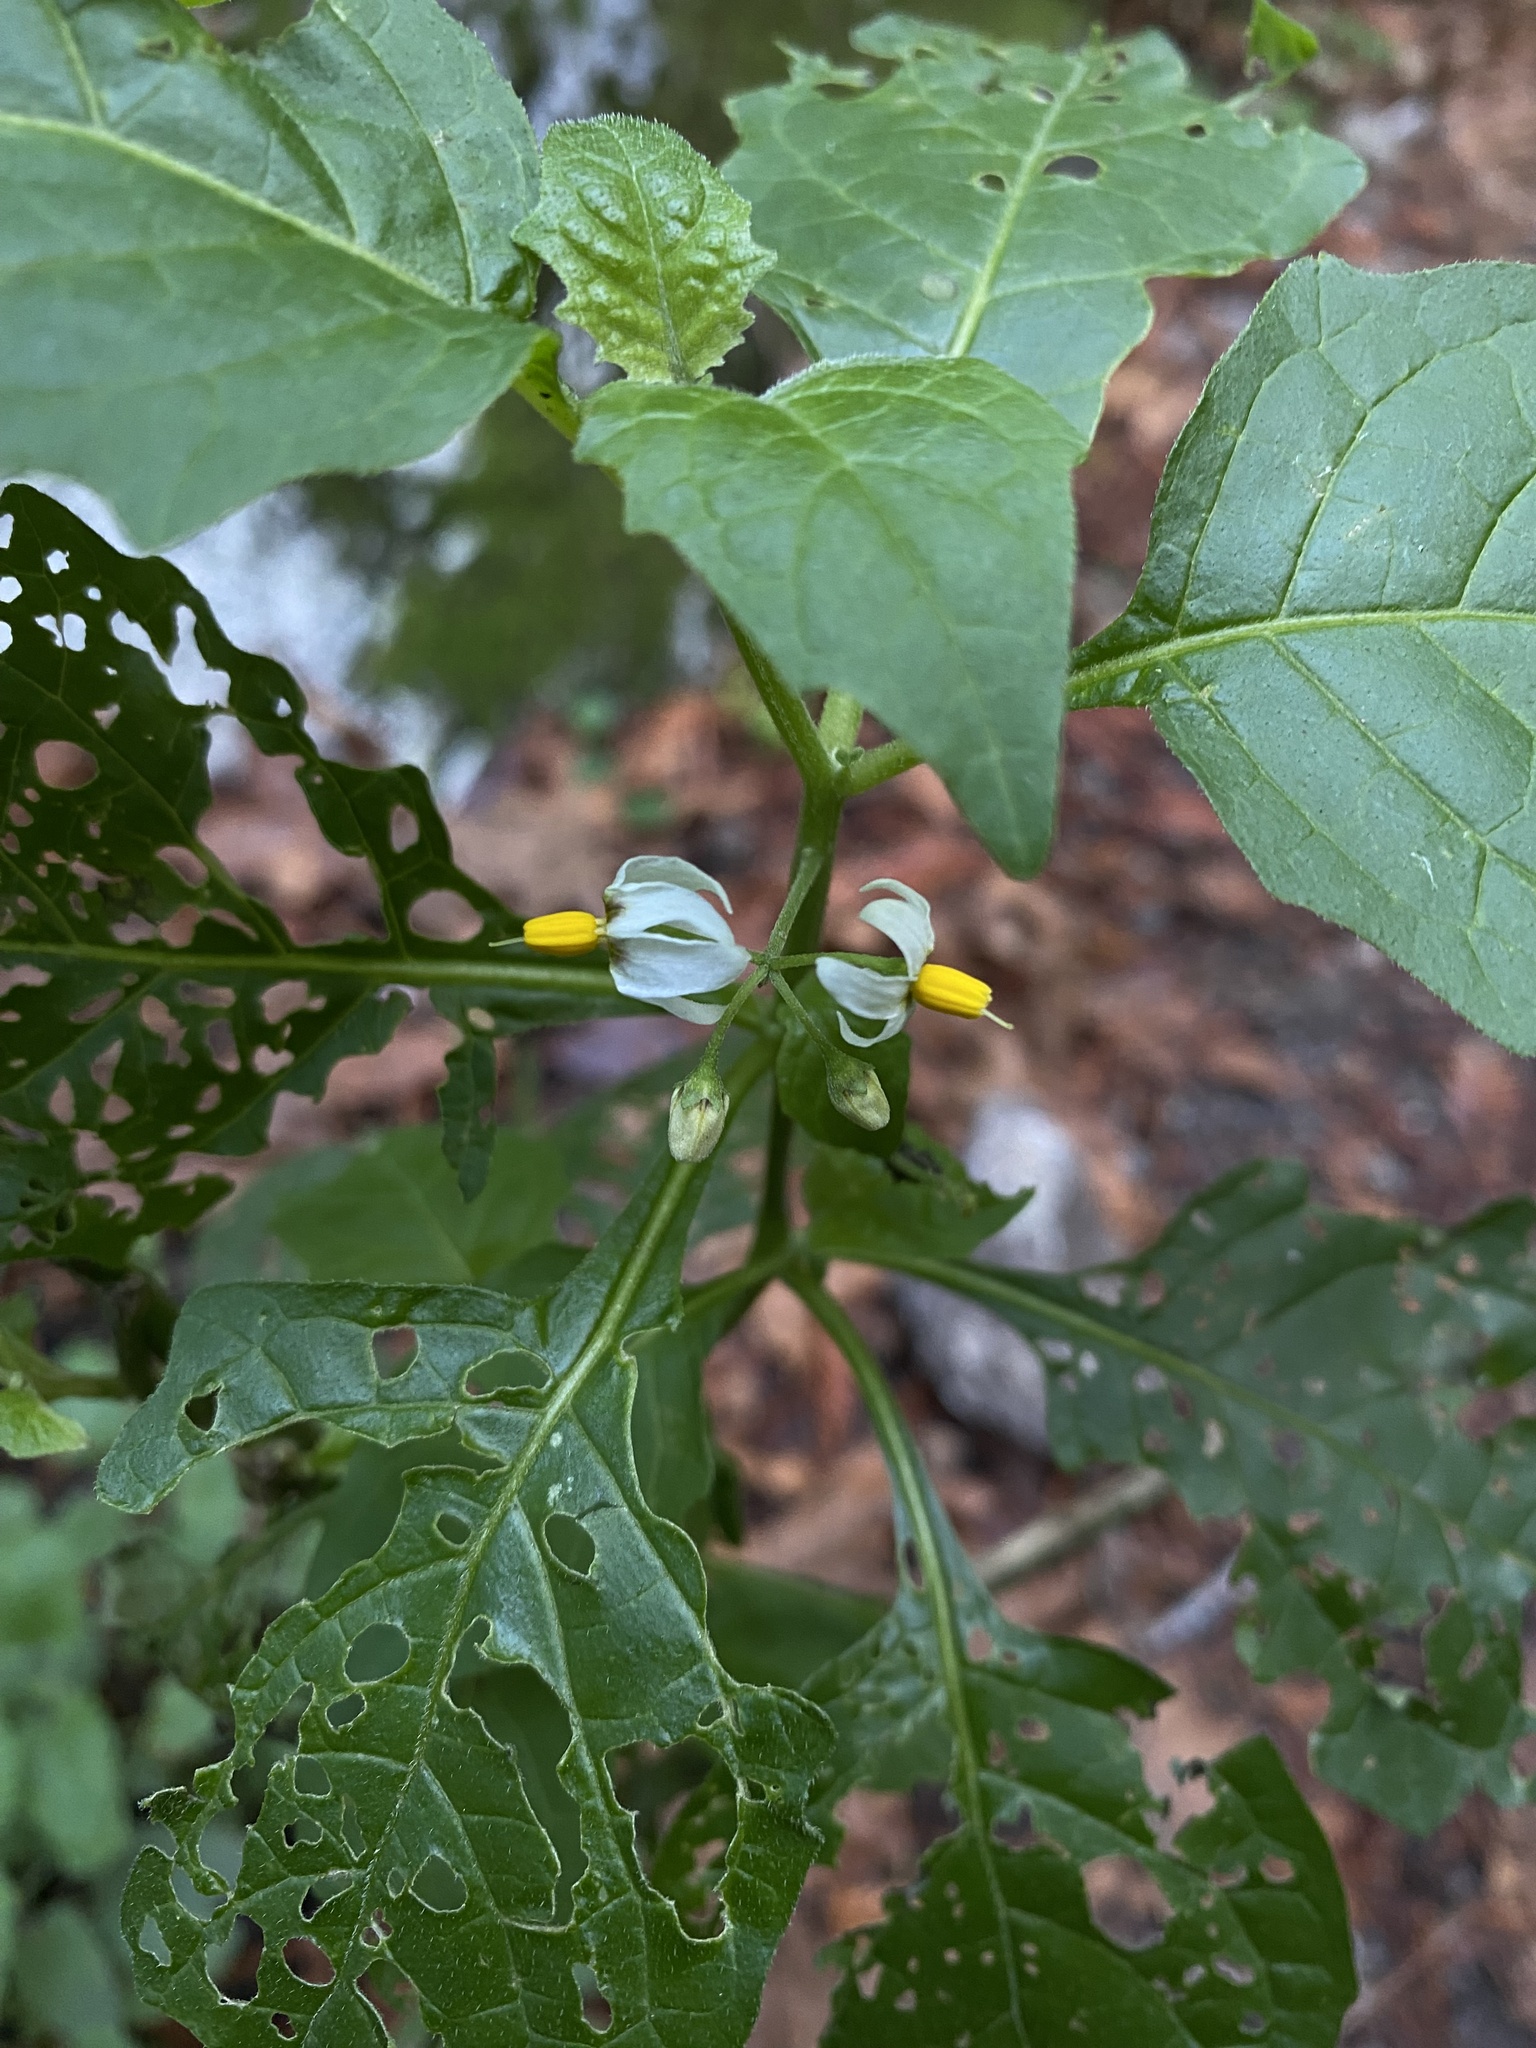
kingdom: Plantae
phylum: Tracheophyta
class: Magnoliopsida
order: Solanales
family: Solanaceae
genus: Solanum
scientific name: Solanum douglasii
